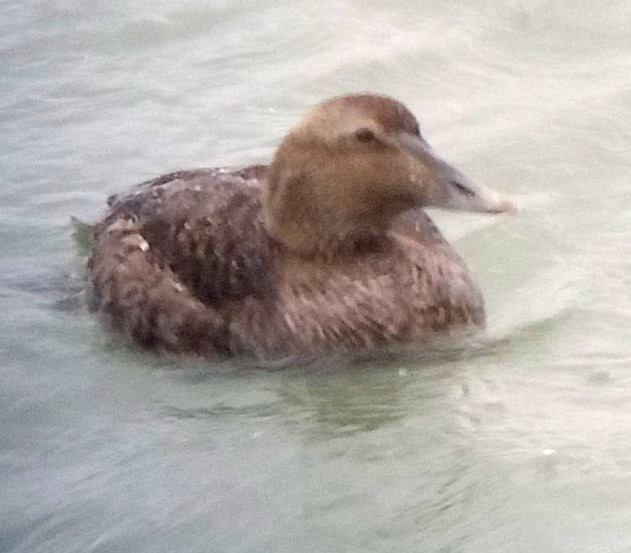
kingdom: Animalia
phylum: Chordata
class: Aves
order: Anseriformes
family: Anatidae
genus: Somateria
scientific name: Somateria mollissima
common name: Common eider
